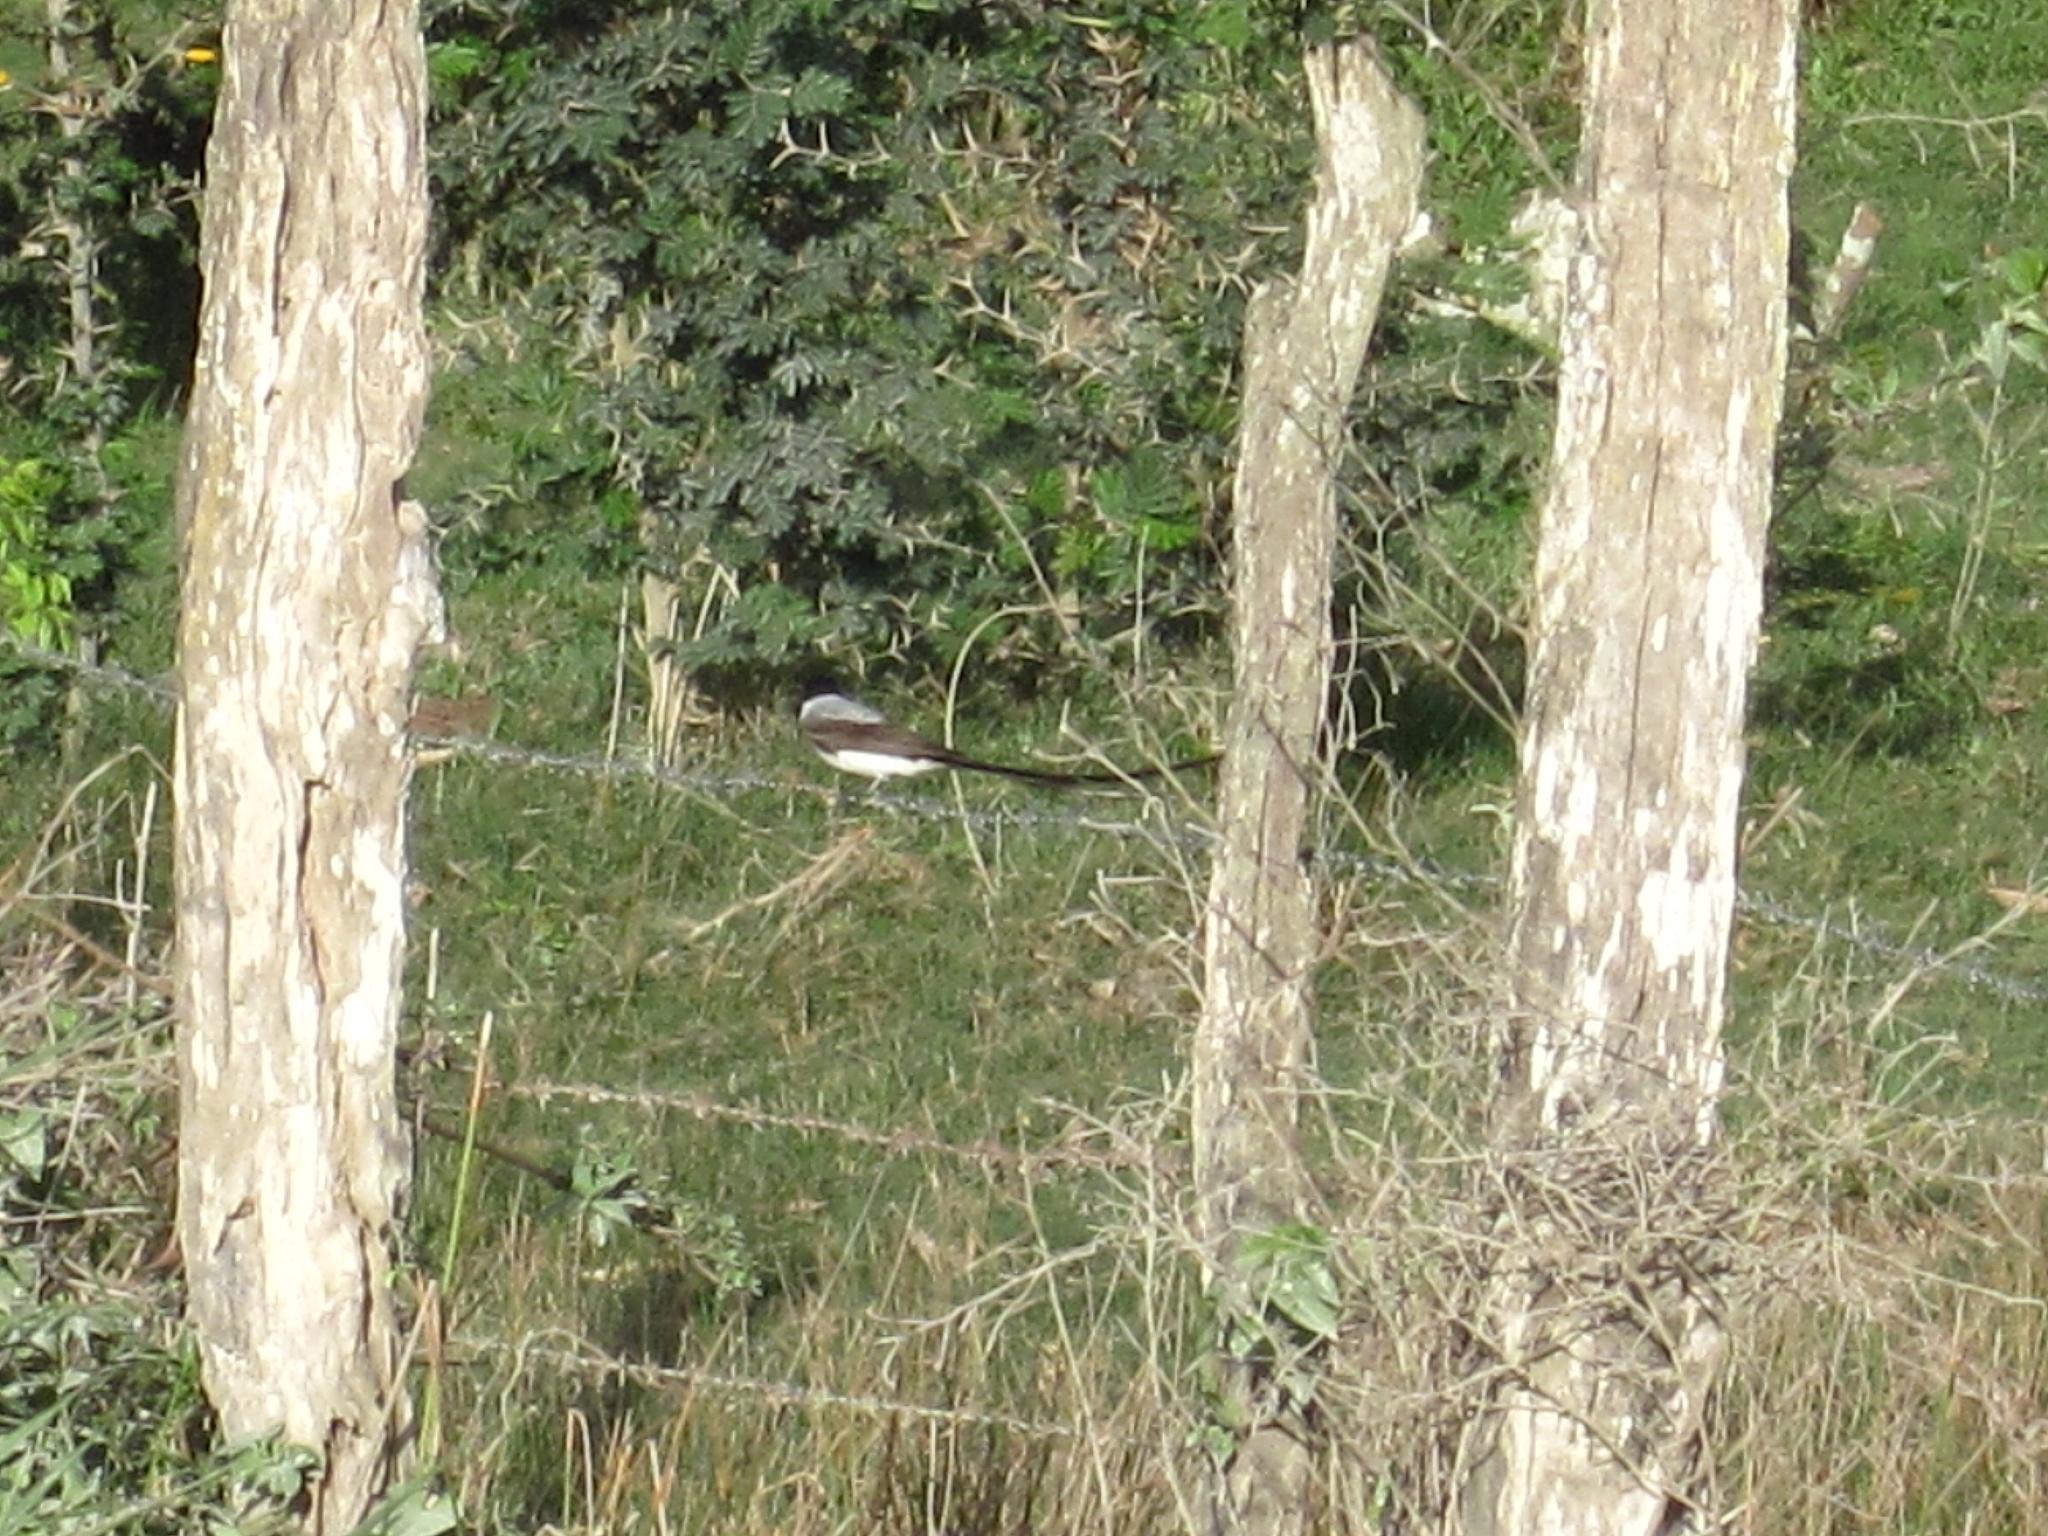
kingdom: Animalia
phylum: Chordata
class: Aves
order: Passeriformes
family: Tyrannidae
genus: Tyrannus
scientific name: Tyrannus savana
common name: Fork-tailed flycatcher
